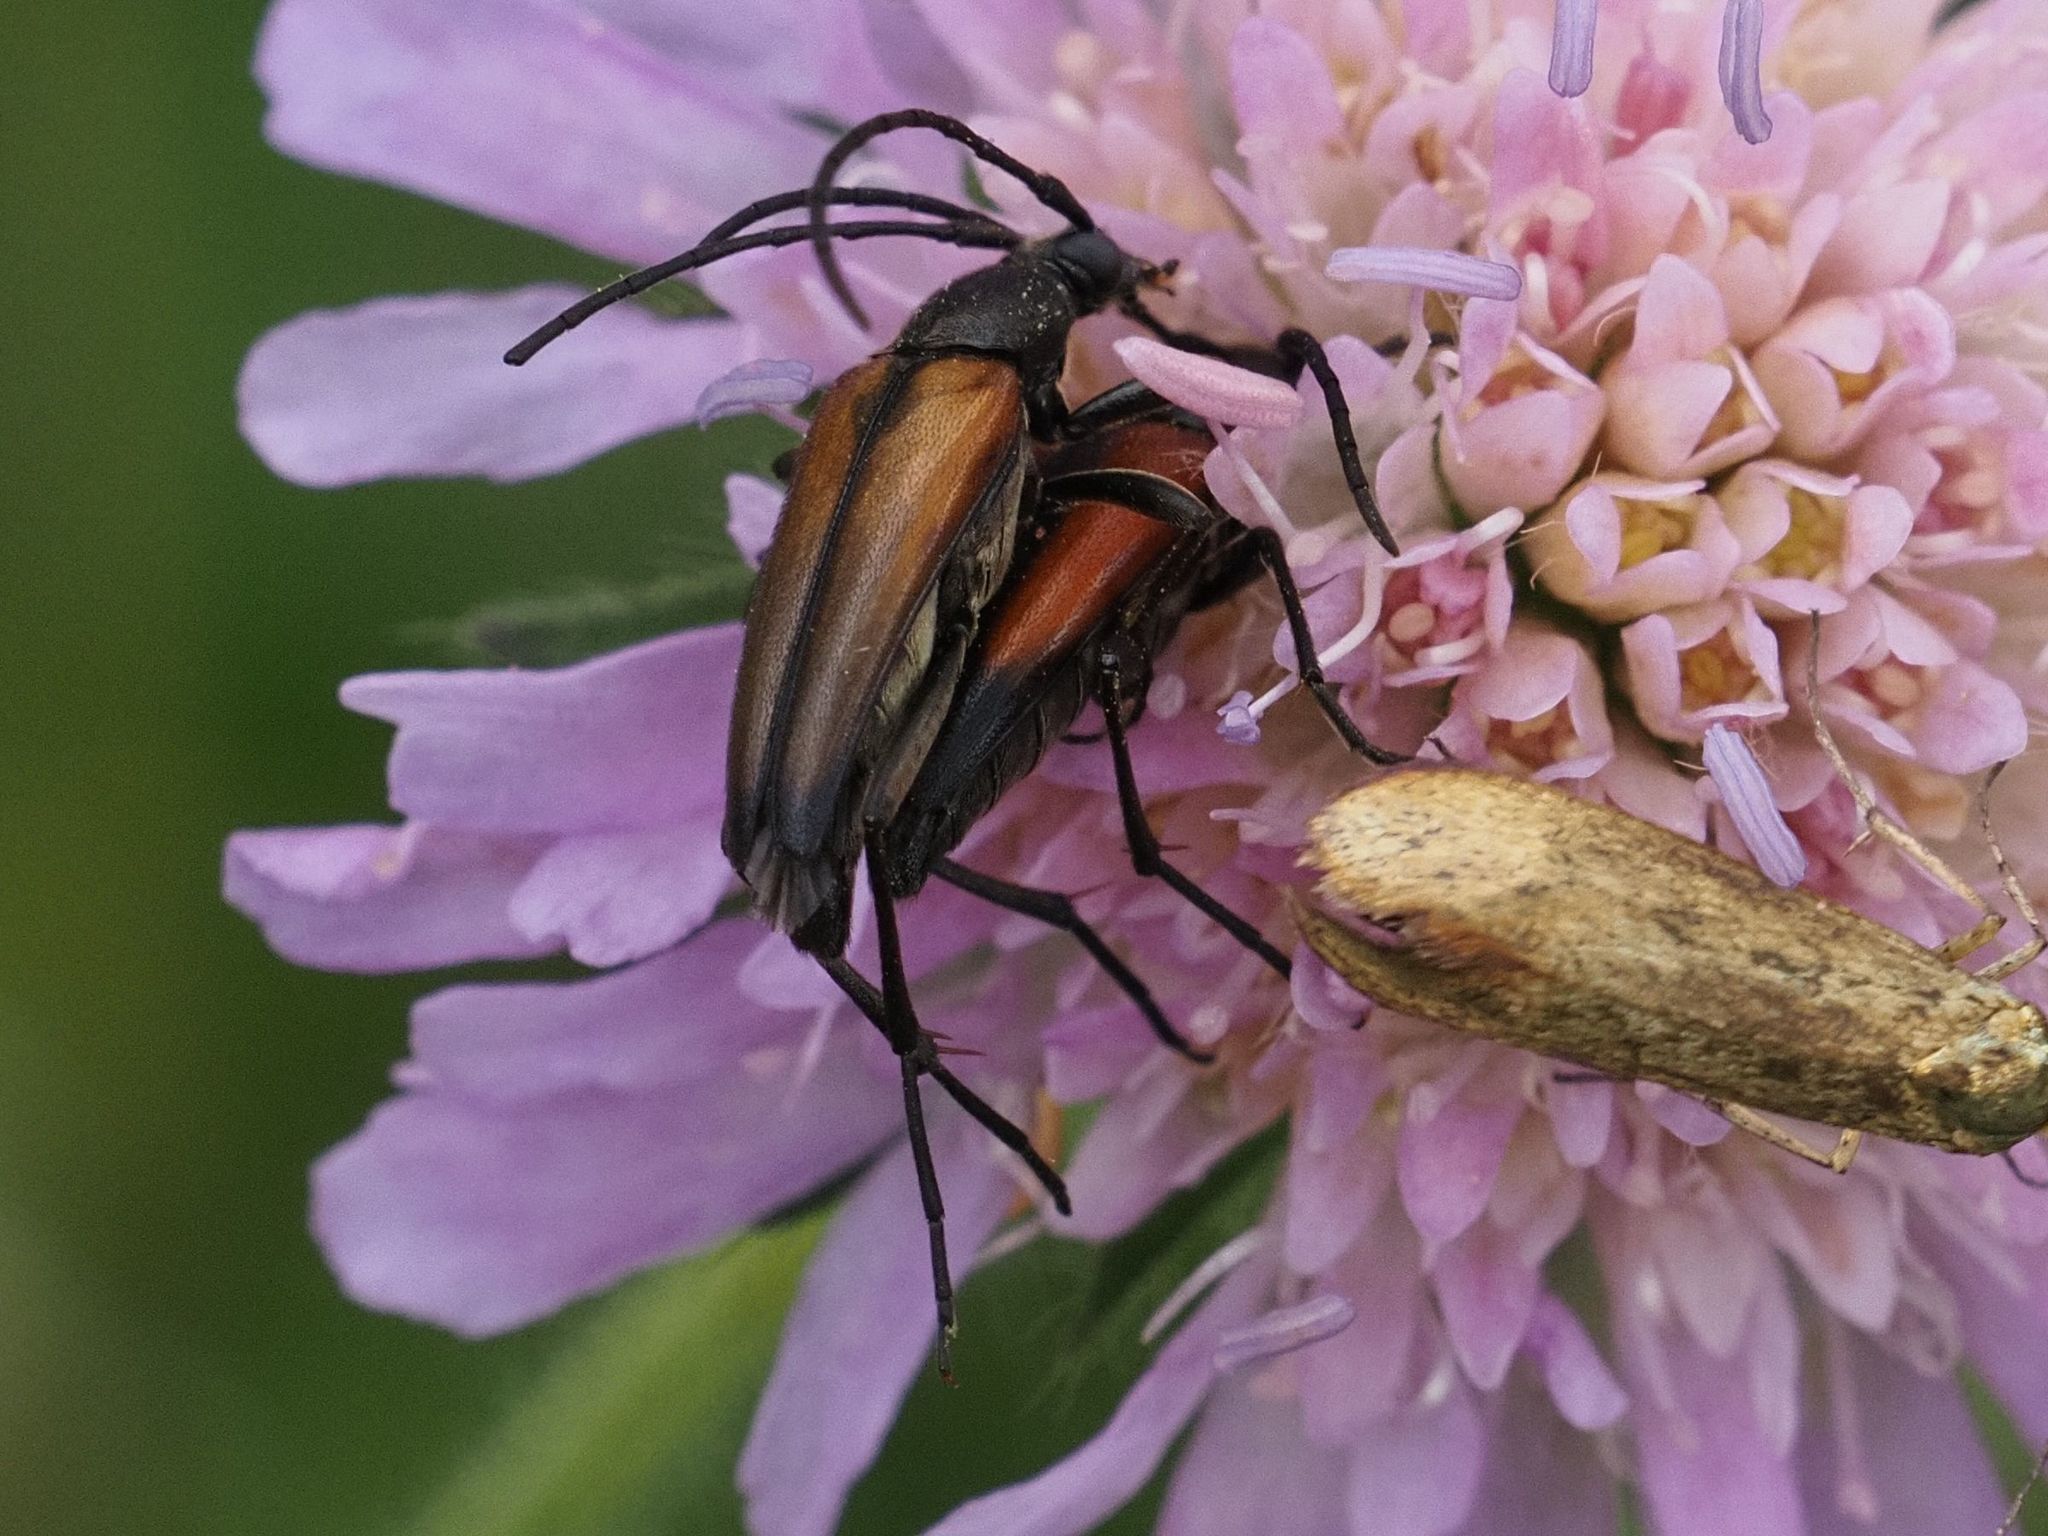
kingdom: Animalia
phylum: Arthropoda
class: Insecta
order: Coleoptera
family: Cerambycidae
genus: Stenurella
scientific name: Stenurella melanura
